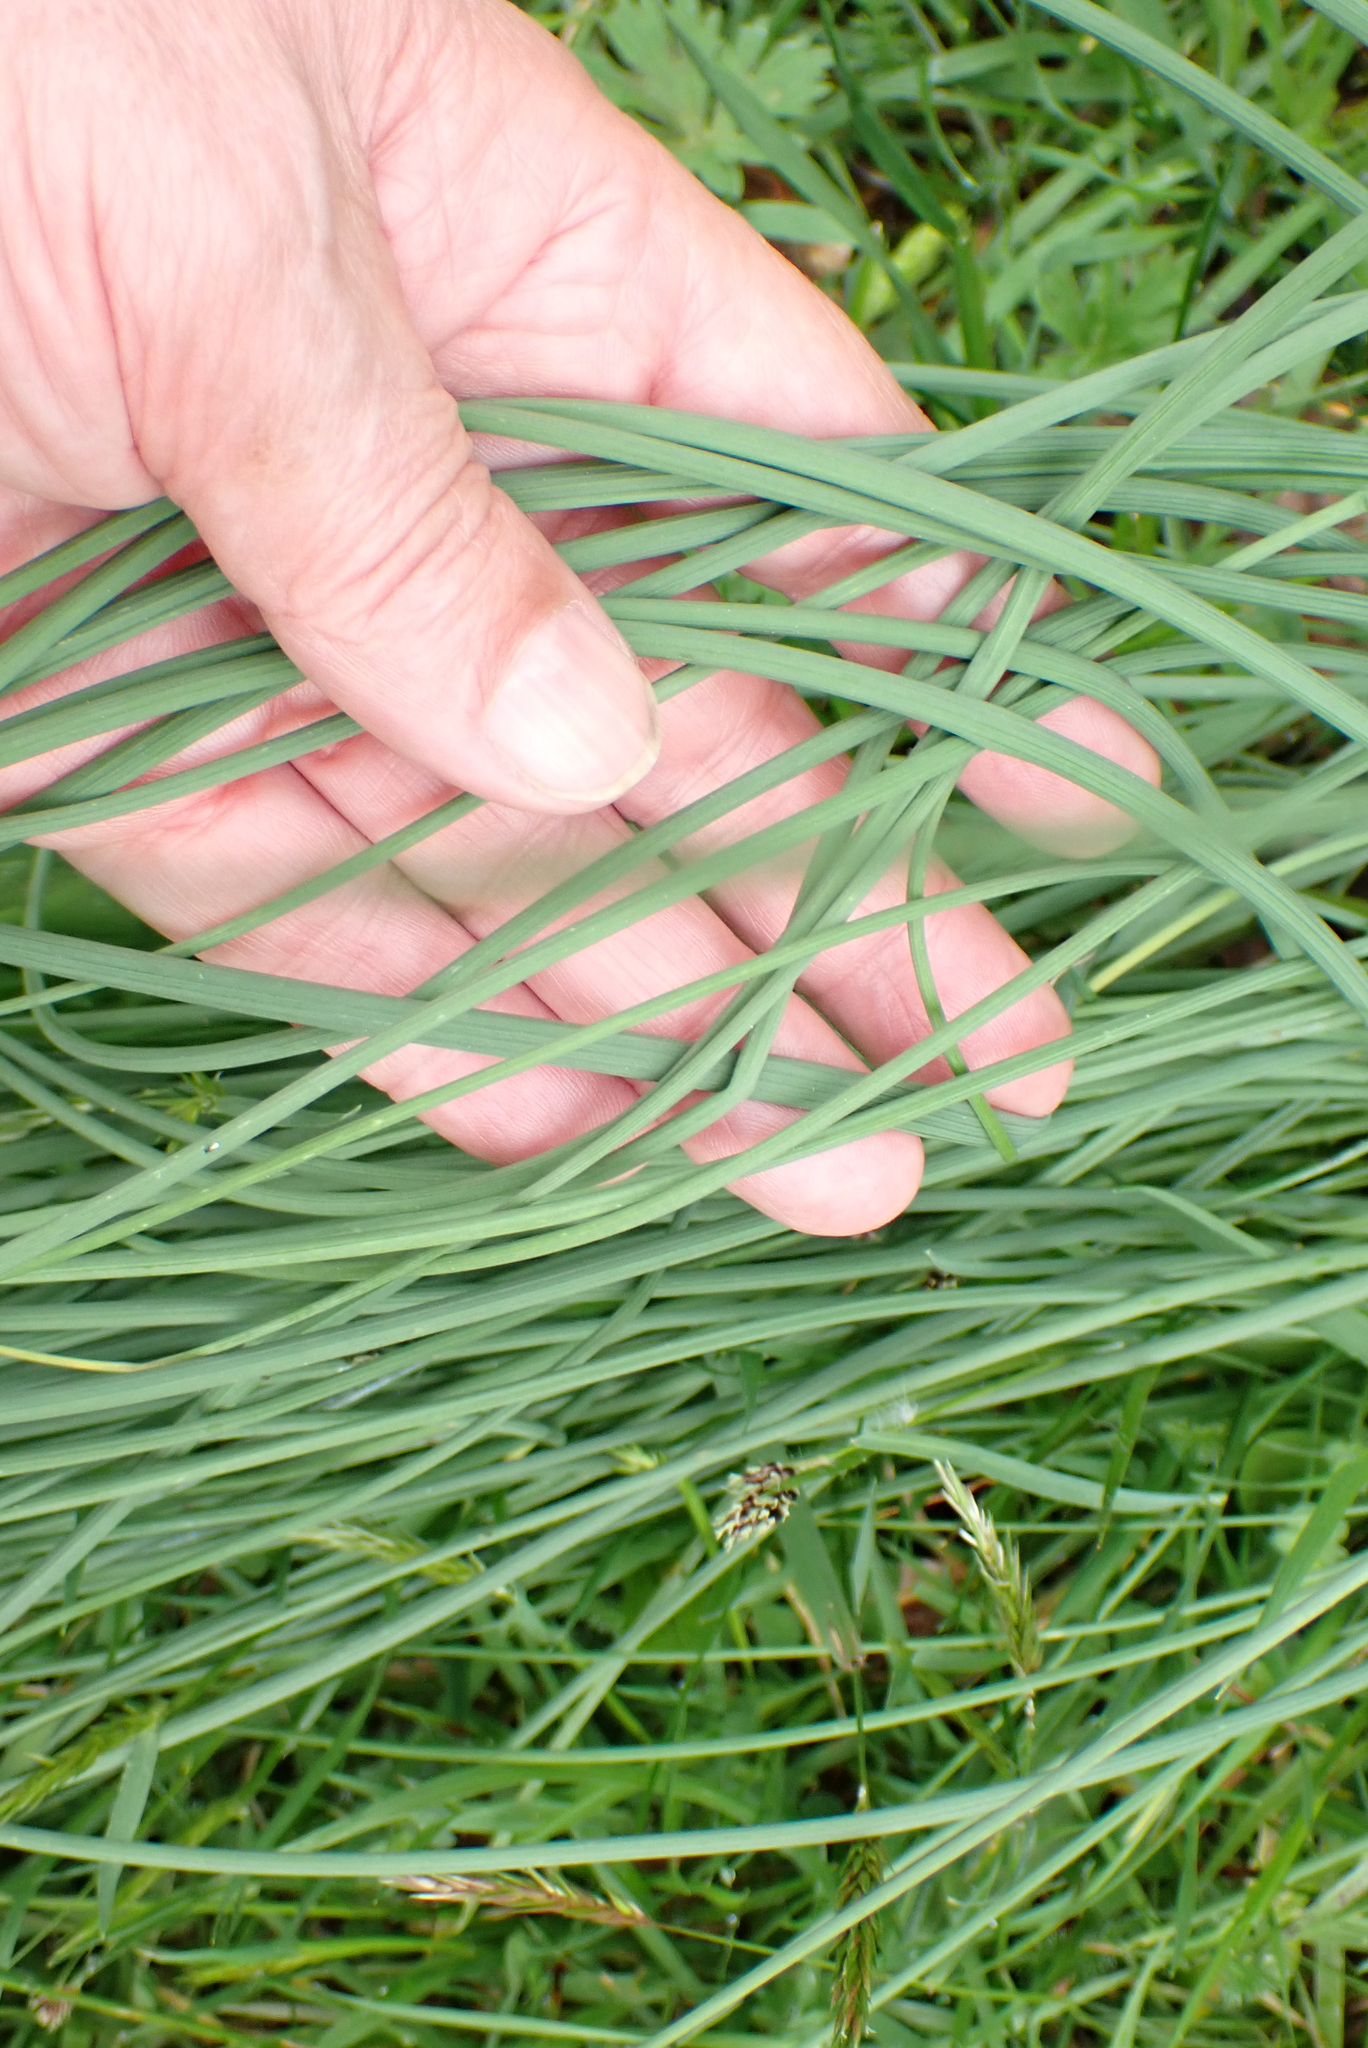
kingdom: Plantae
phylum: Tracheophyta
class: Liliopsida
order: Asparagales
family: Amaryllidaceae
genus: Allium
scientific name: Allium vineale
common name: Crow garlic
